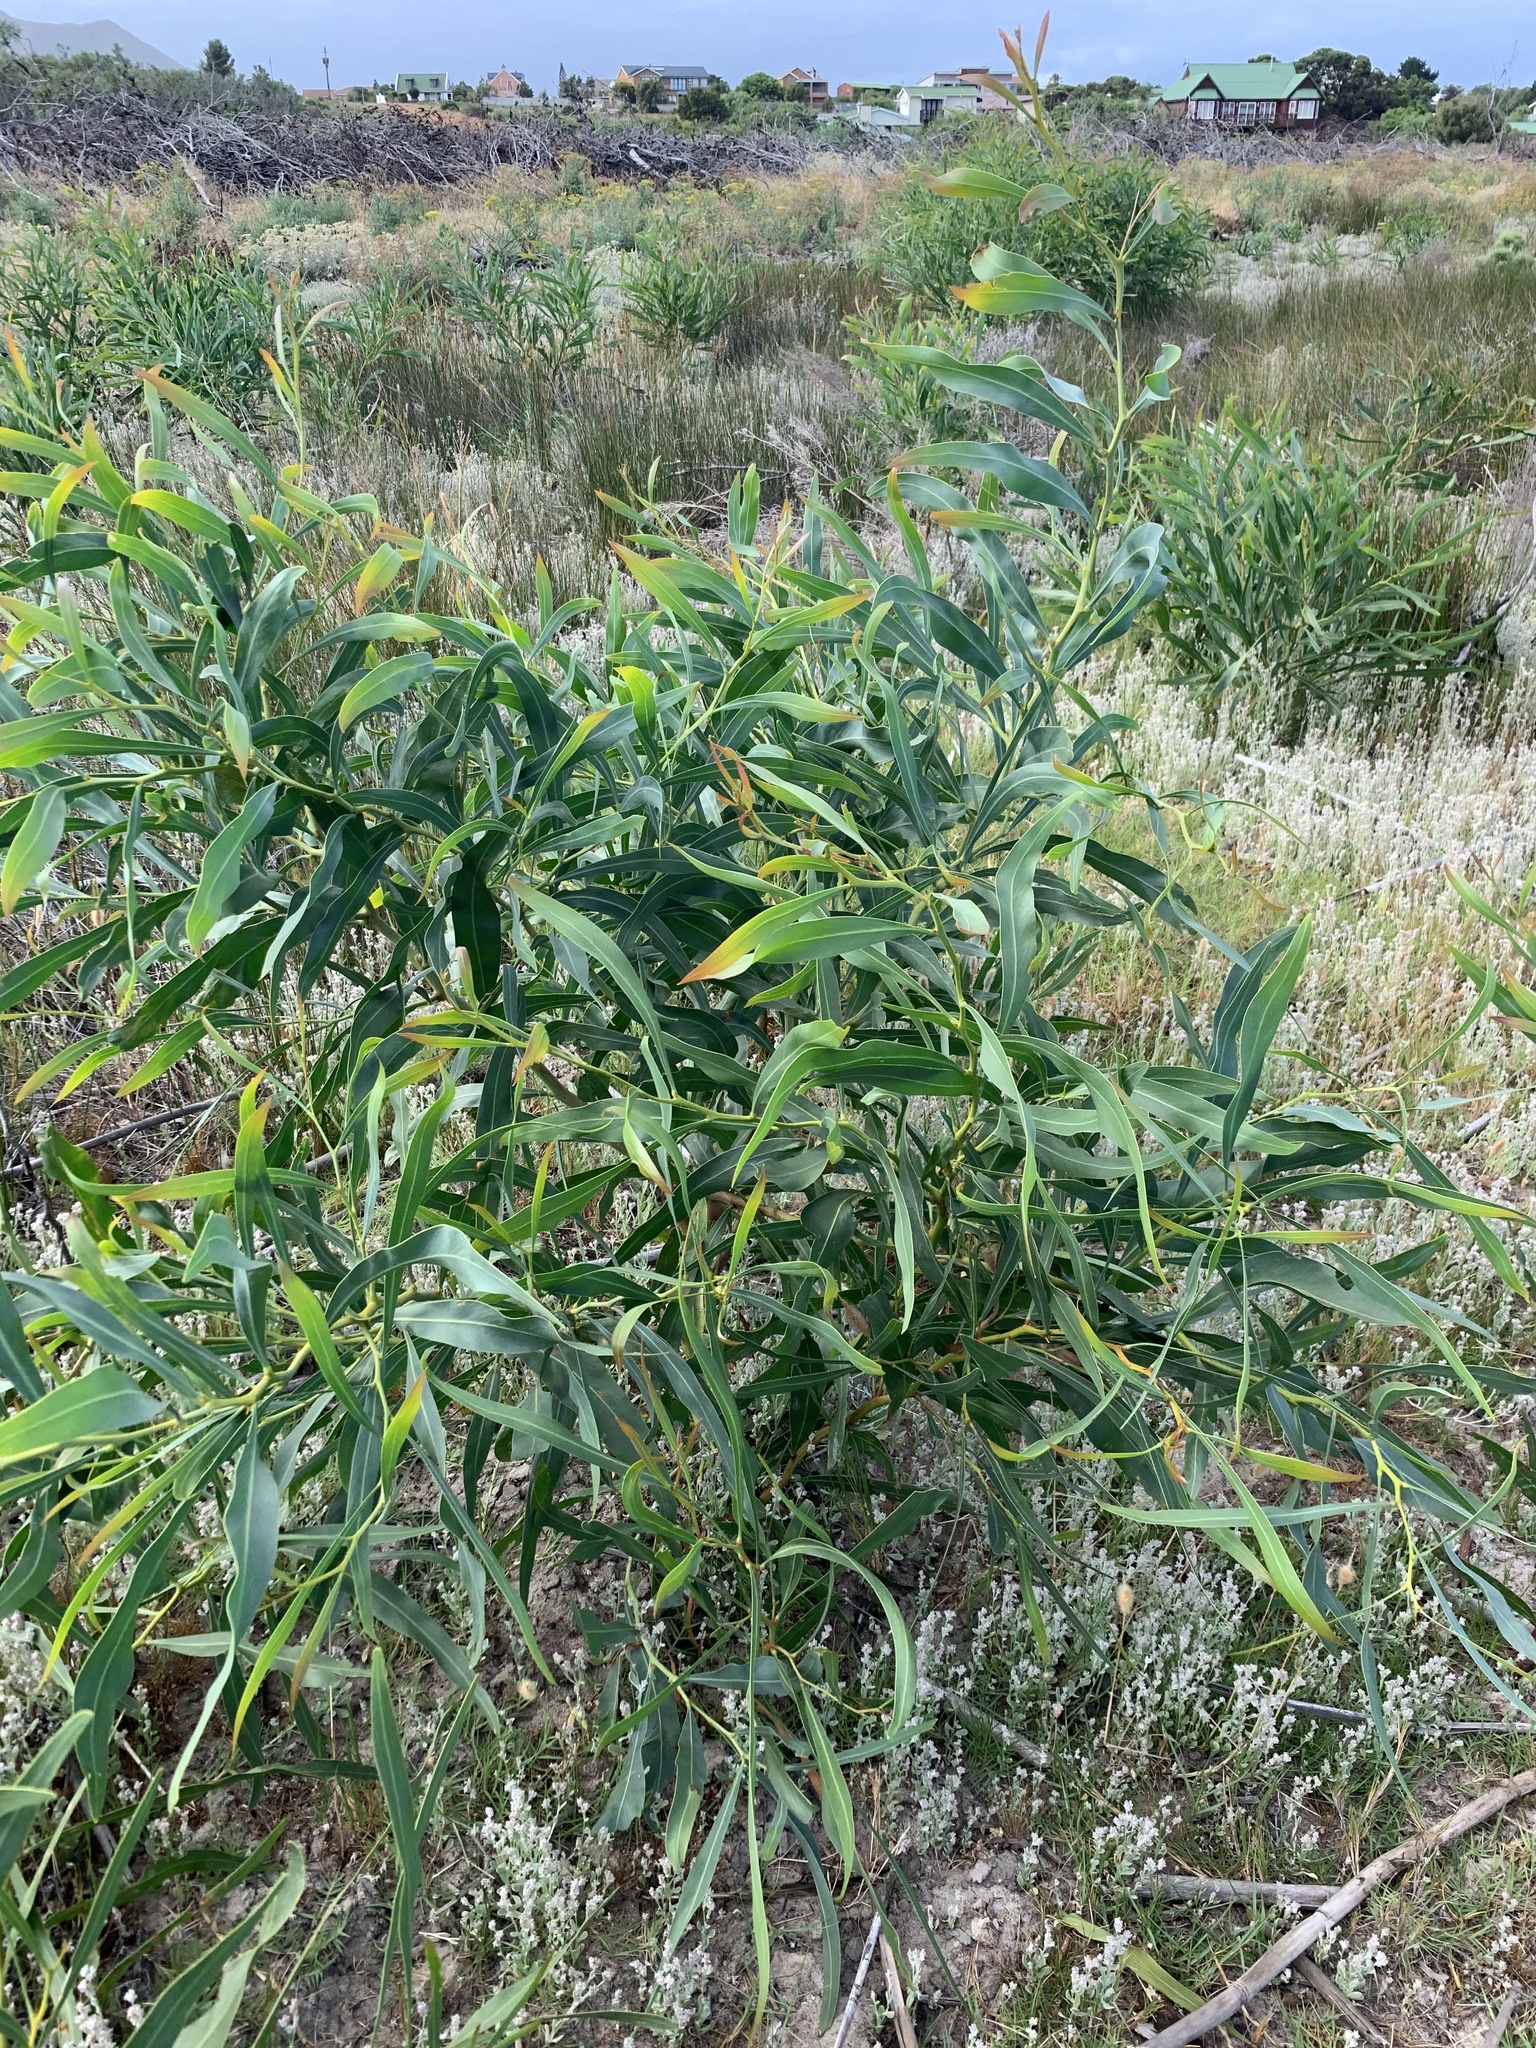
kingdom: Plantae
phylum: Tracheophyta
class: Magnoliopsida
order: Fabales
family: Fabaceae
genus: Acacia
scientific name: Acacia saligna
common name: Orange wattle
